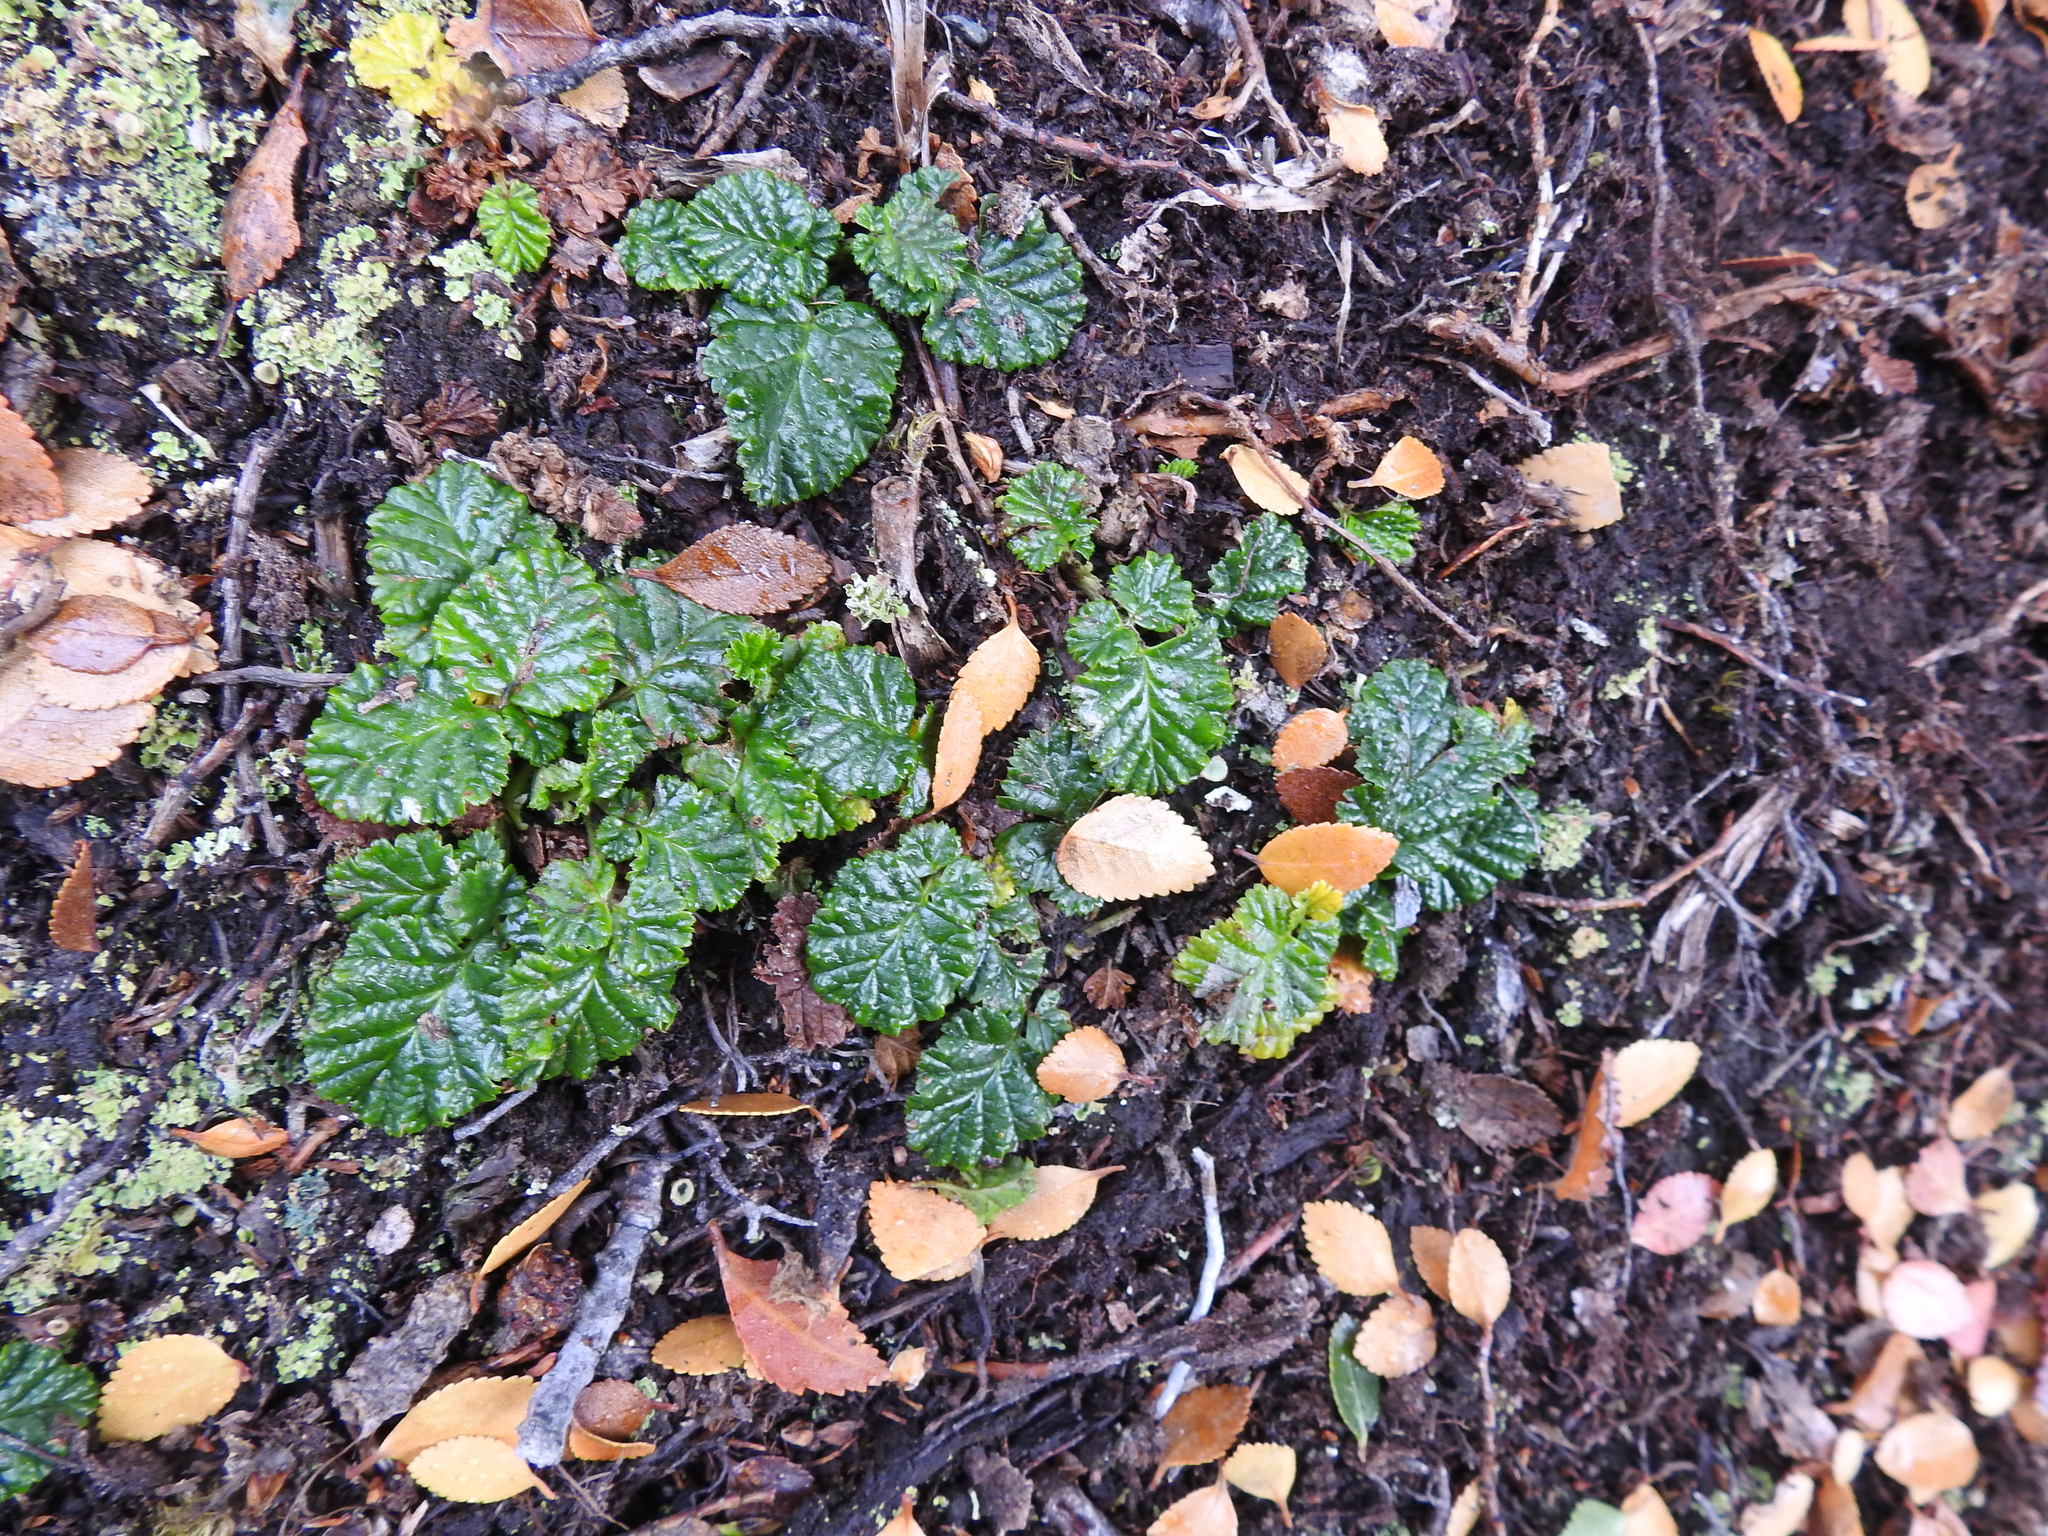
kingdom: Plantae
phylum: Tracheophyta
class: Magnoliopsida
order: Rosales
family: Rosaceae
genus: Rubus
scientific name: Rubus geoides
